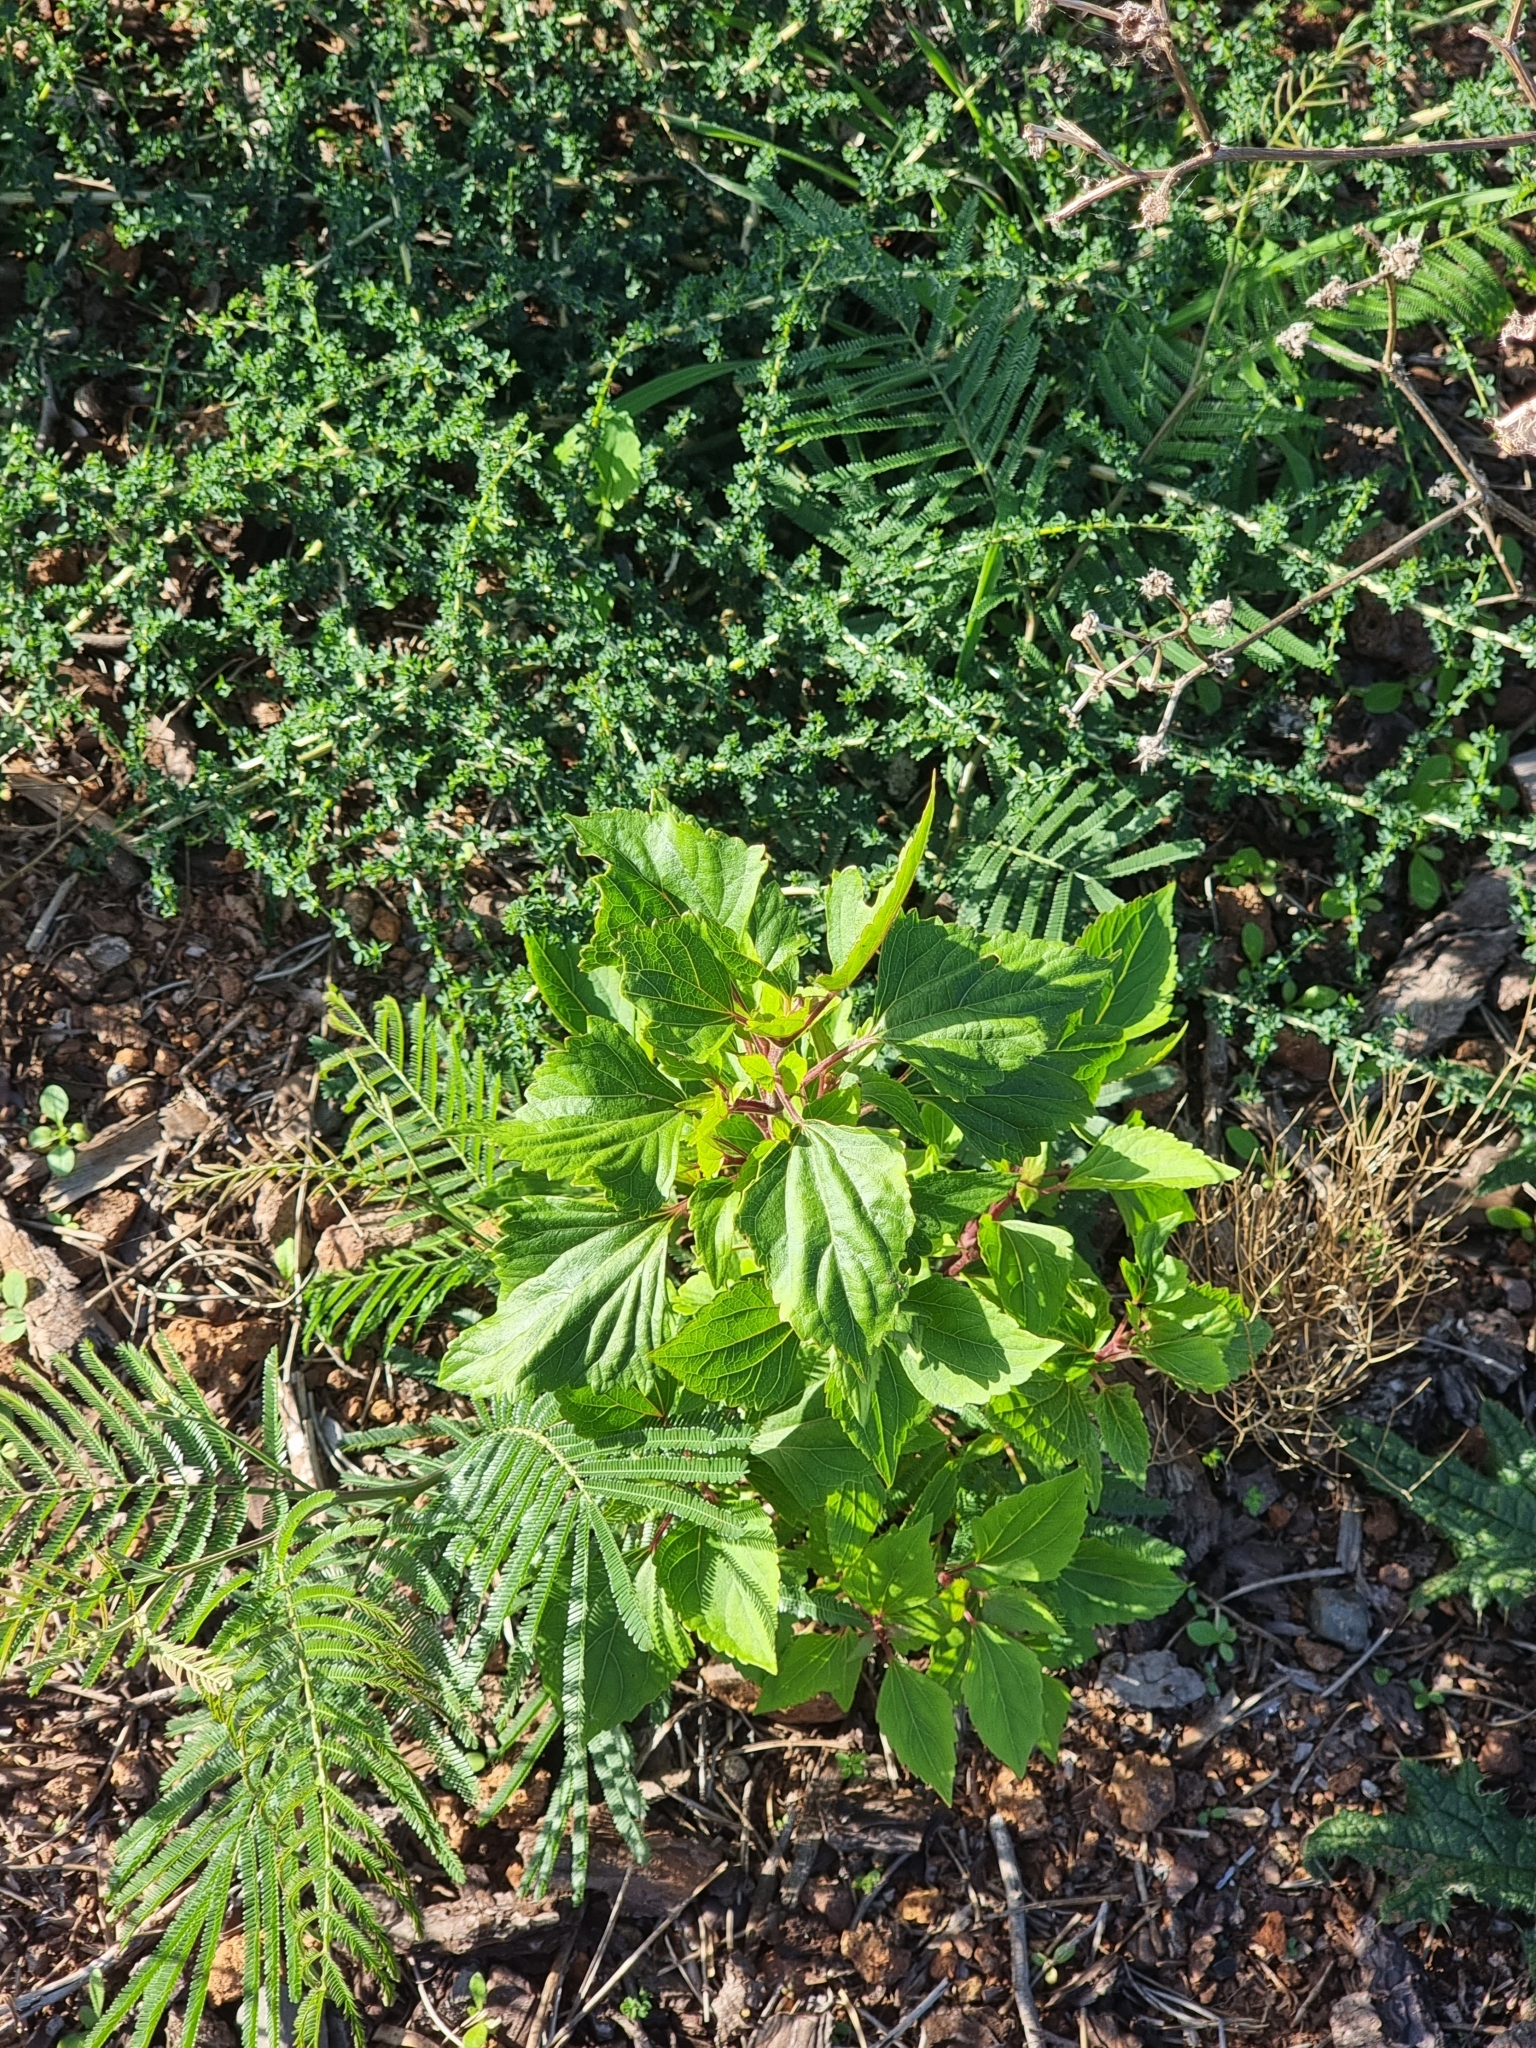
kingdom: Plantae
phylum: Tracheophyta
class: Magnoliopsida
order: Asterales
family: Asteraceae
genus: Ageratina
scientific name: Ageratina adenophora
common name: Sticky snakeroot
